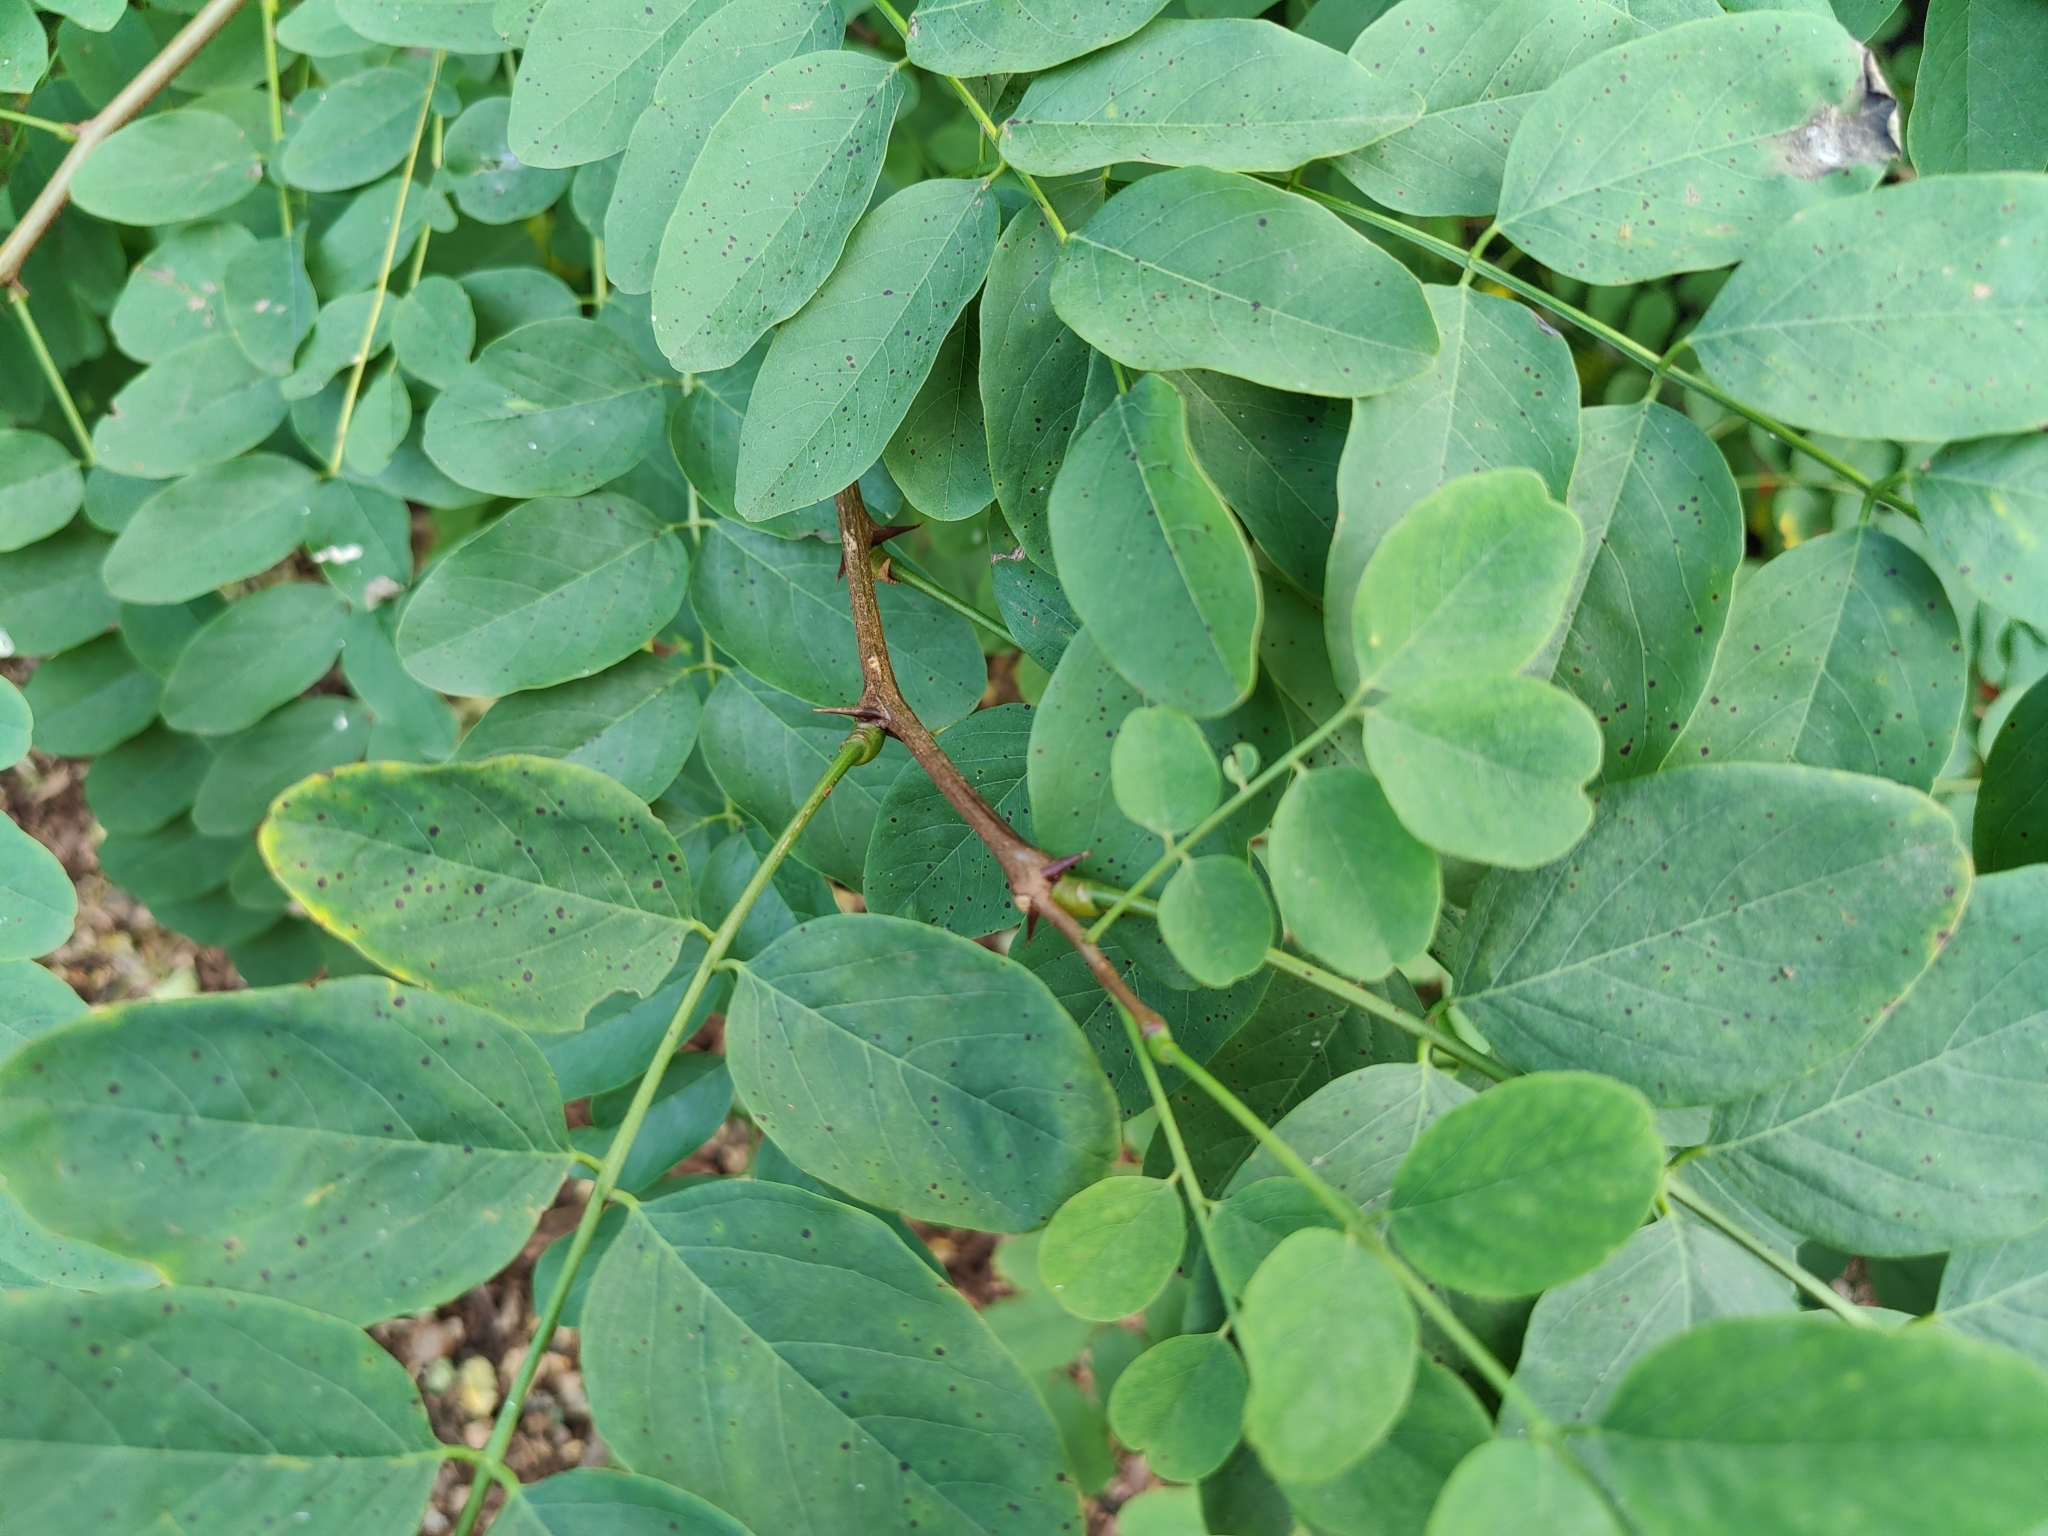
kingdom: Plantae
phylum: Tracheophyta
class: Magnoliopsida
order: Fabales
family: Fabaceae
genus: Robinia
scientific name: Robinia pseudoacacia
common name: Black locust
